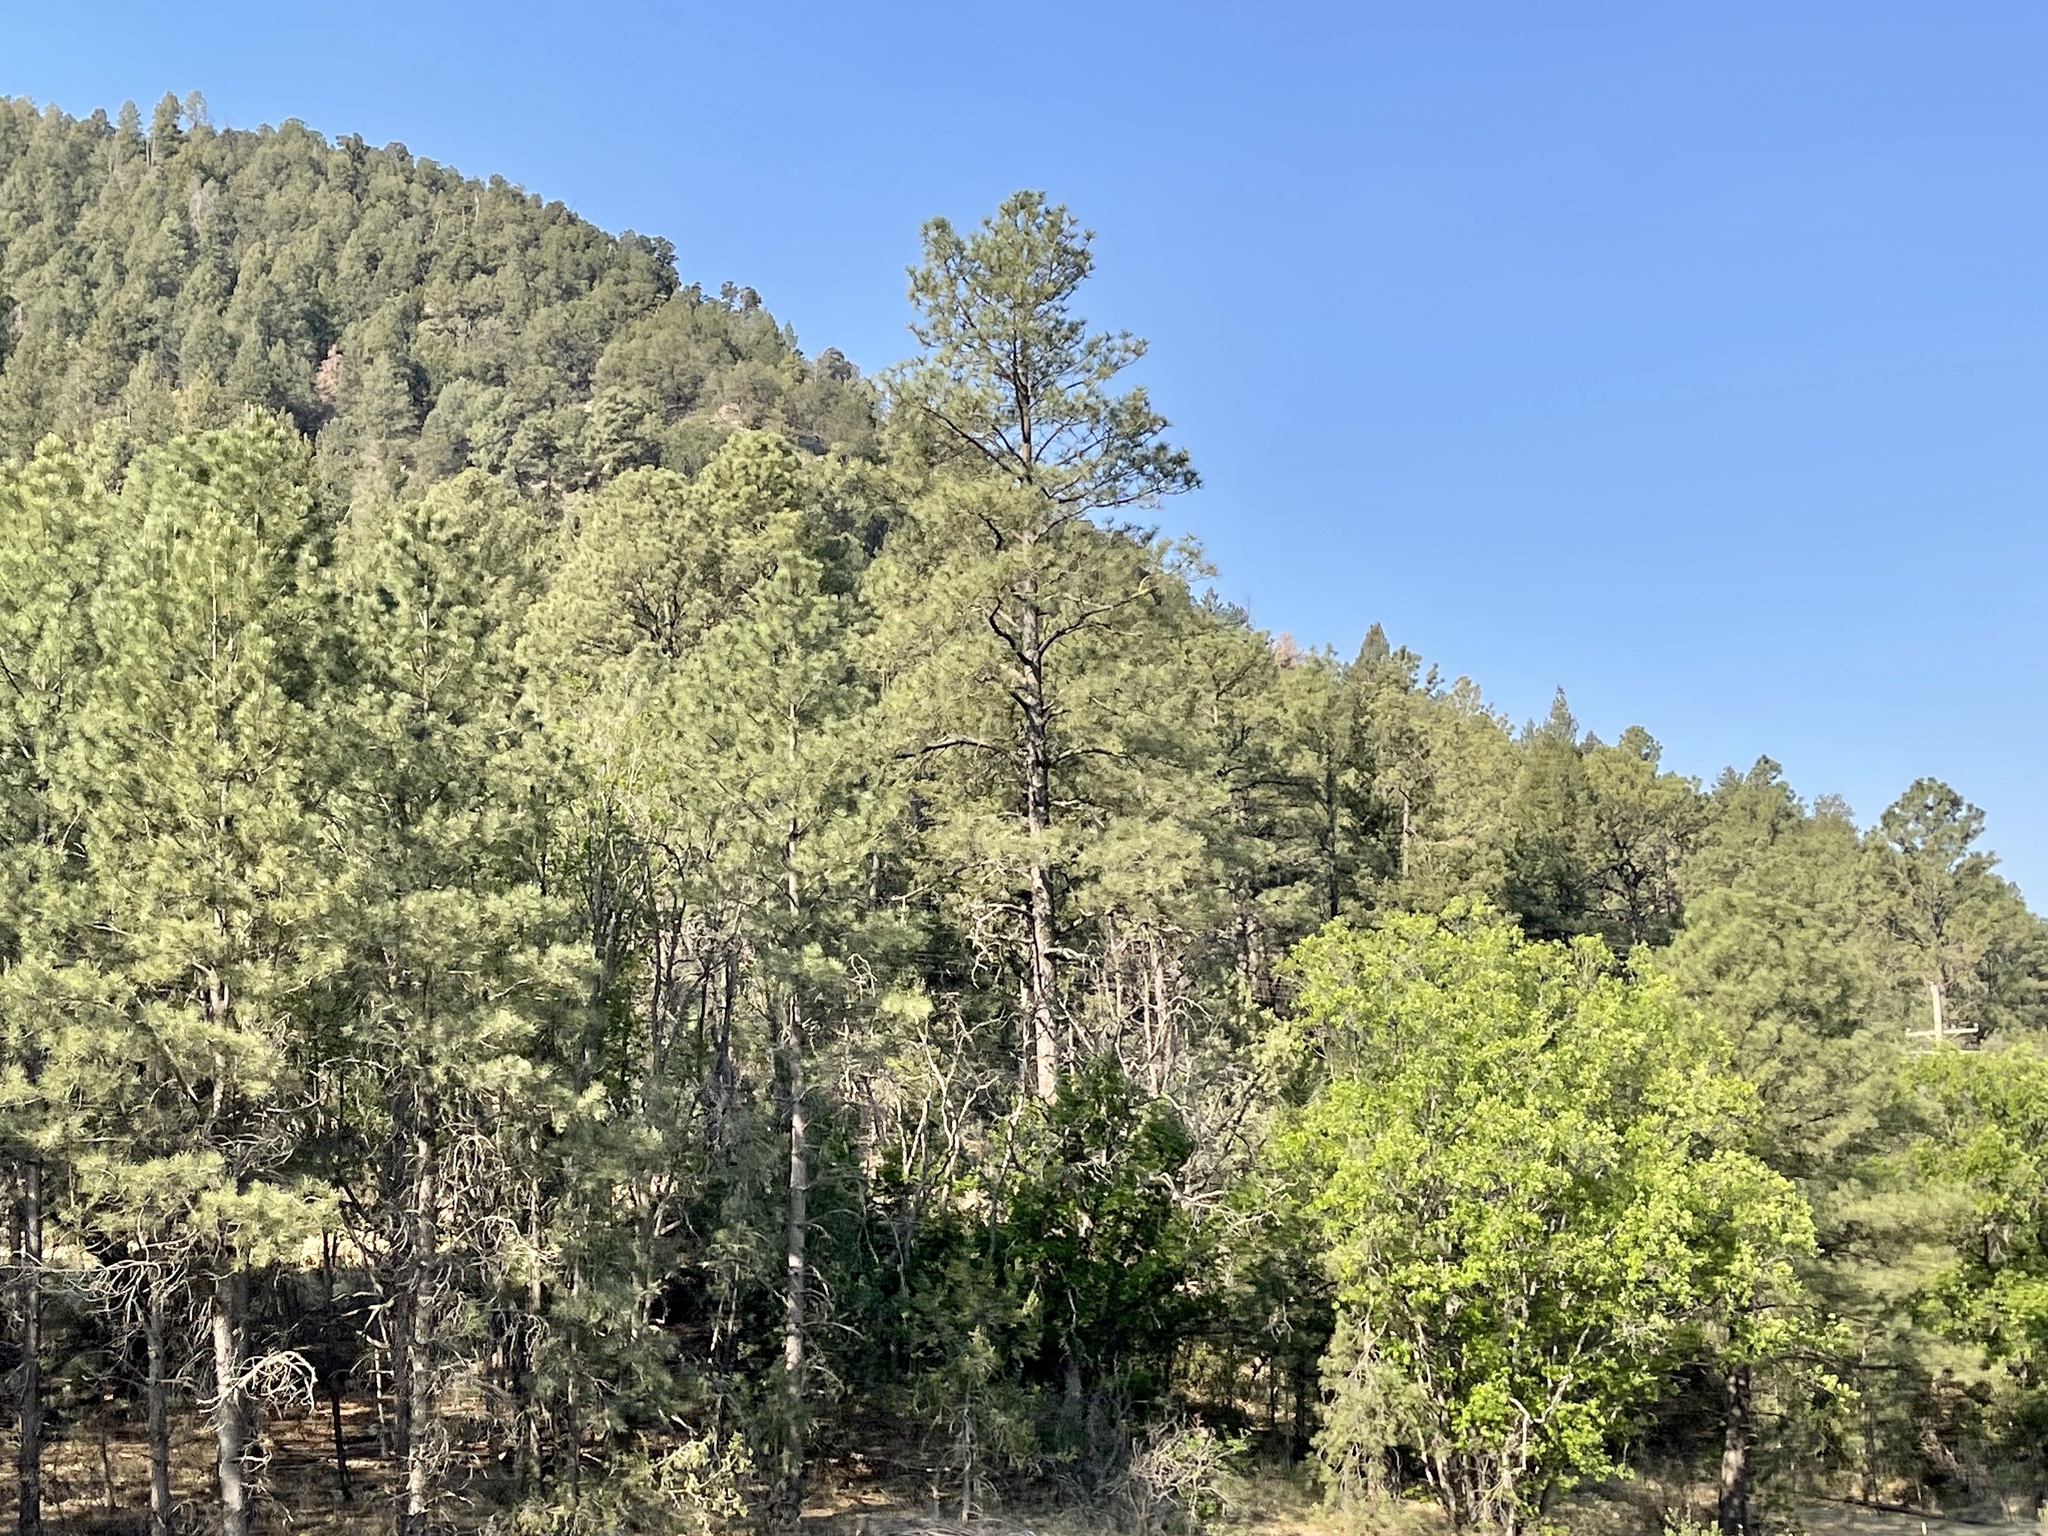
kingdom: Plantae
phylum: Tracheophyta
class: Pinopsida
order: Pinales
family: Pinaceae
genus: Pinus
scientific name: Pinus ponderosa
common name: Western yellow-pine
